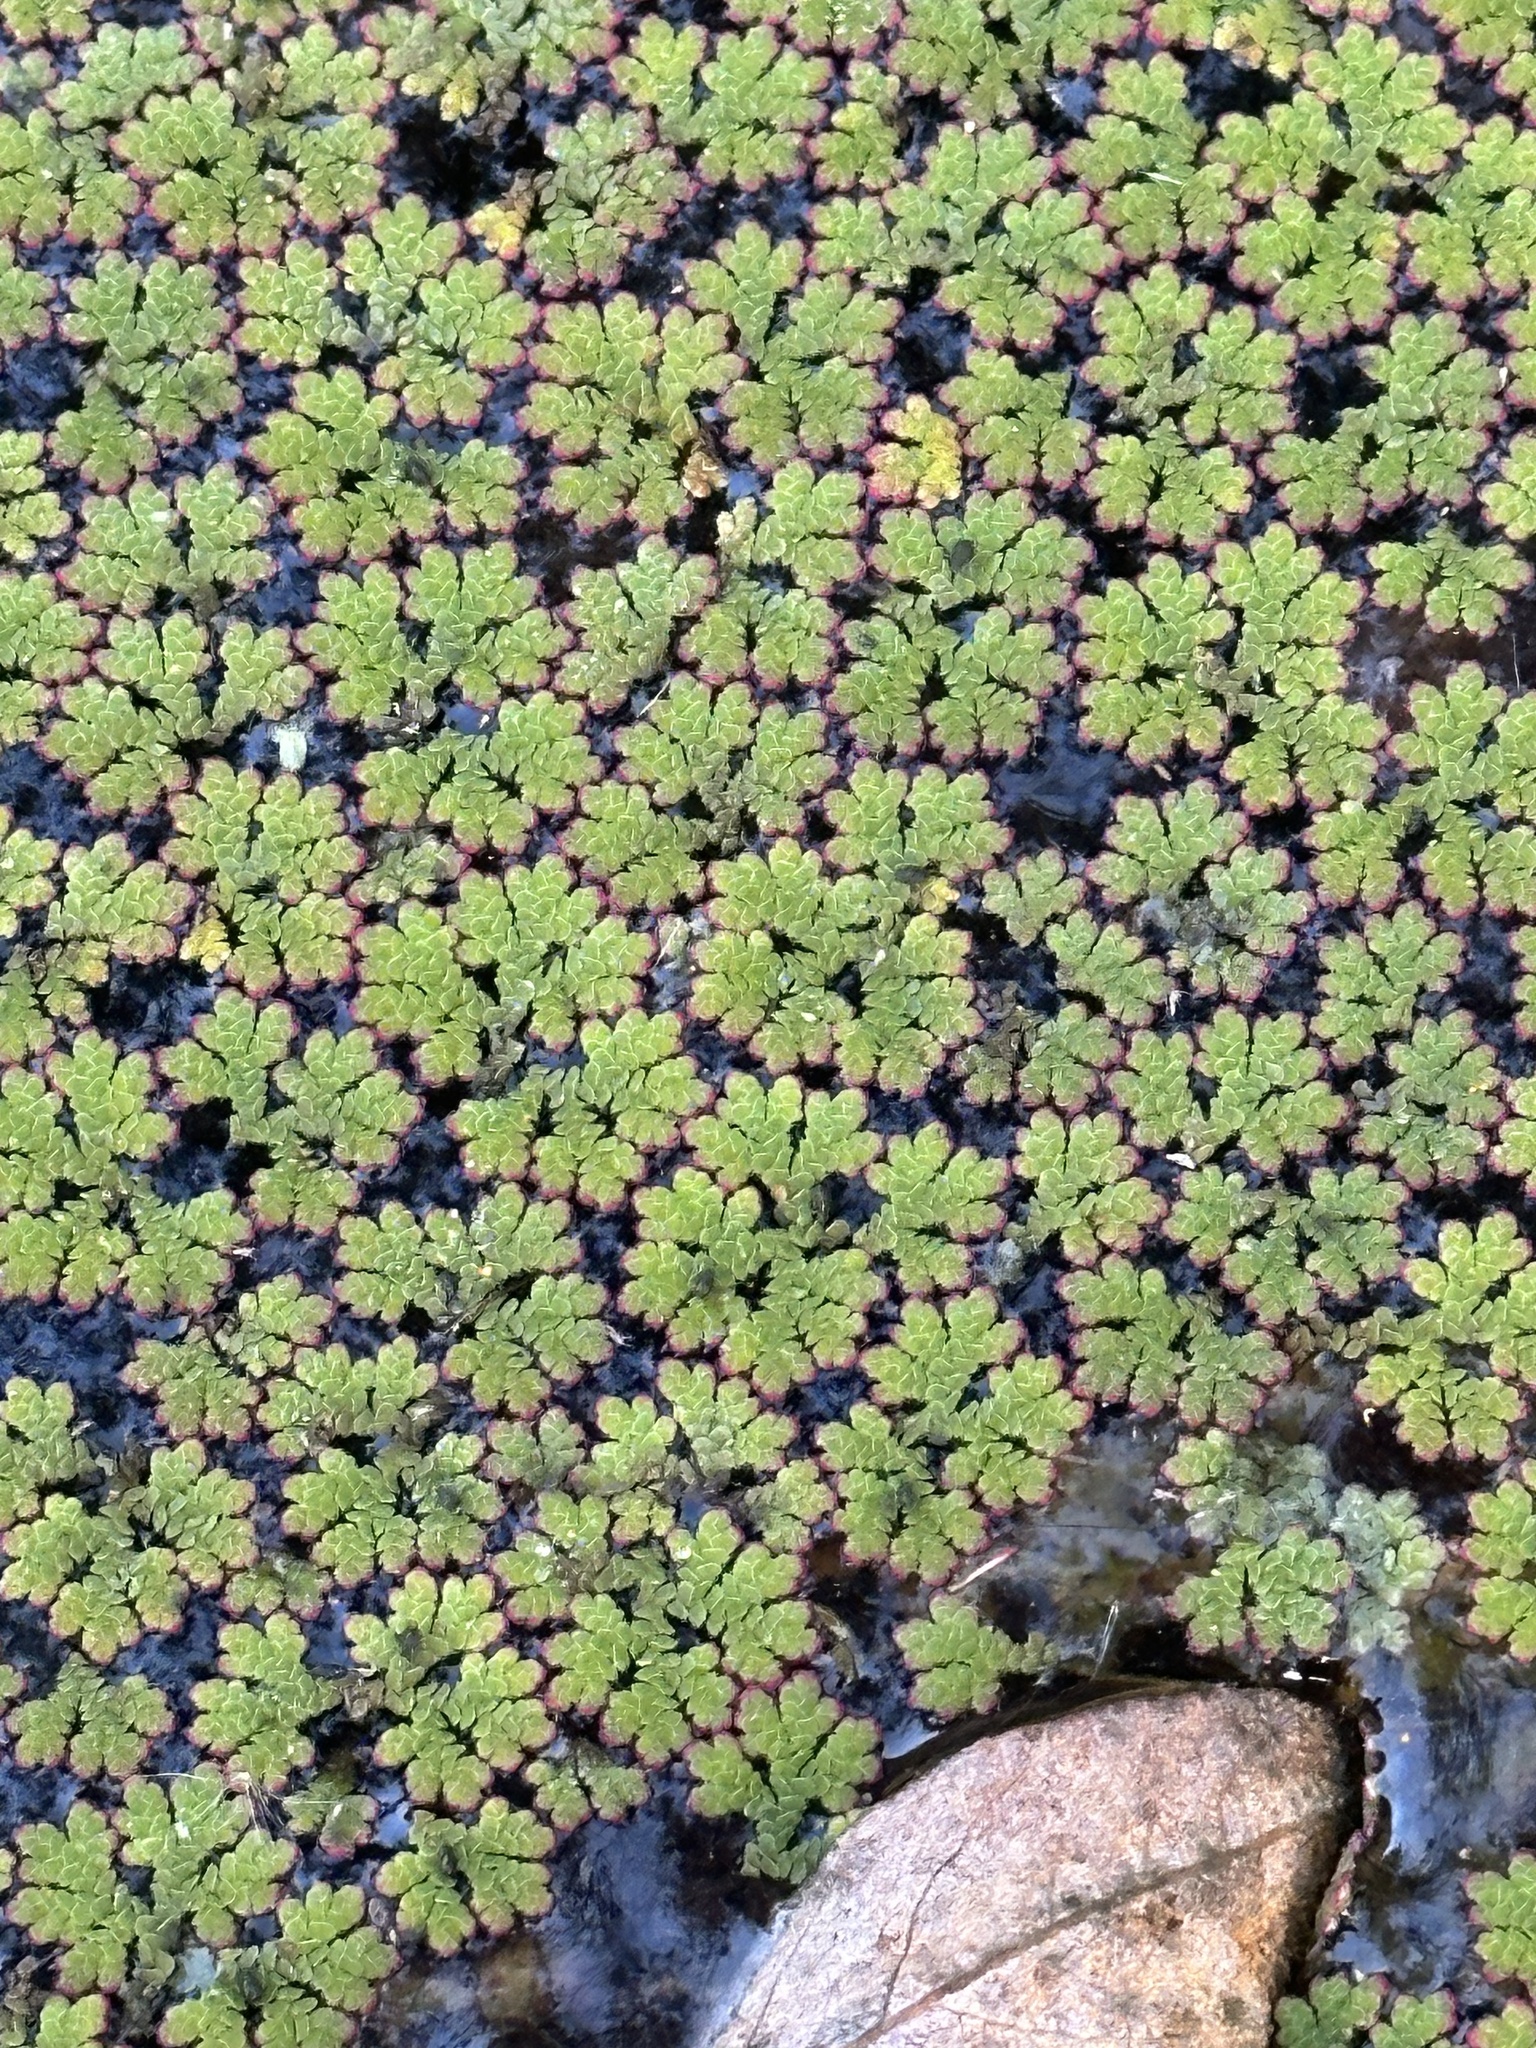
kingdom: Plantae
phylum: Tracheophyta
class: Polypodiopsida
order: Salviniales
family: Salviniaceae
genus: Azolla
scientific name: Azolla filiculoides
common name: Water fern
